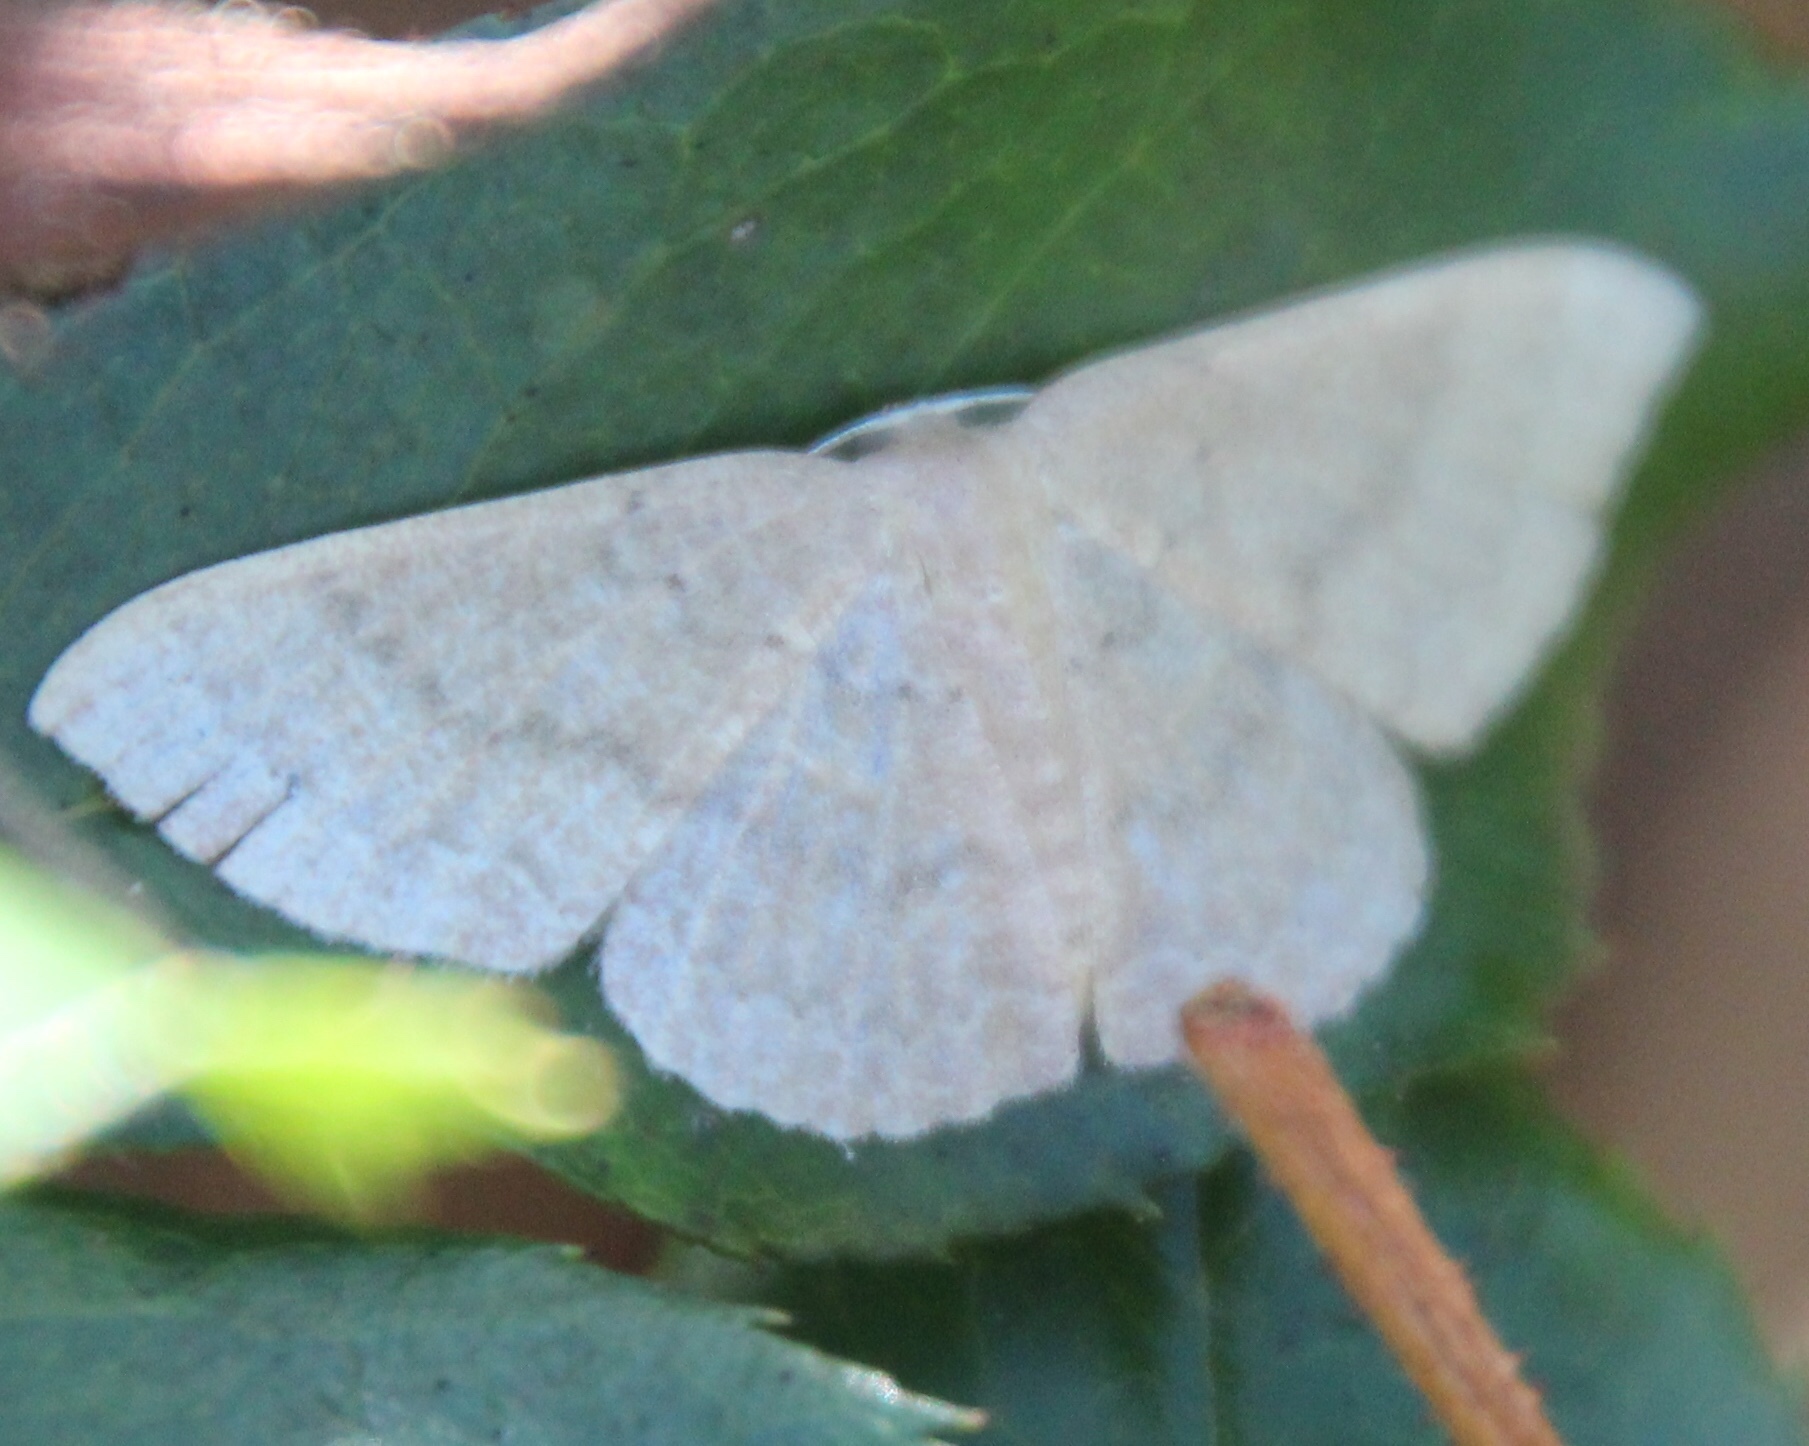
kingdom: Animalia
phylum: Arthropoda
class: Insecta
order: Lepidoptera
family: Geometridae
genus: Pleuroprucha
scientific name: Pleuroprucha insulsaria
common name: Common tan wave
